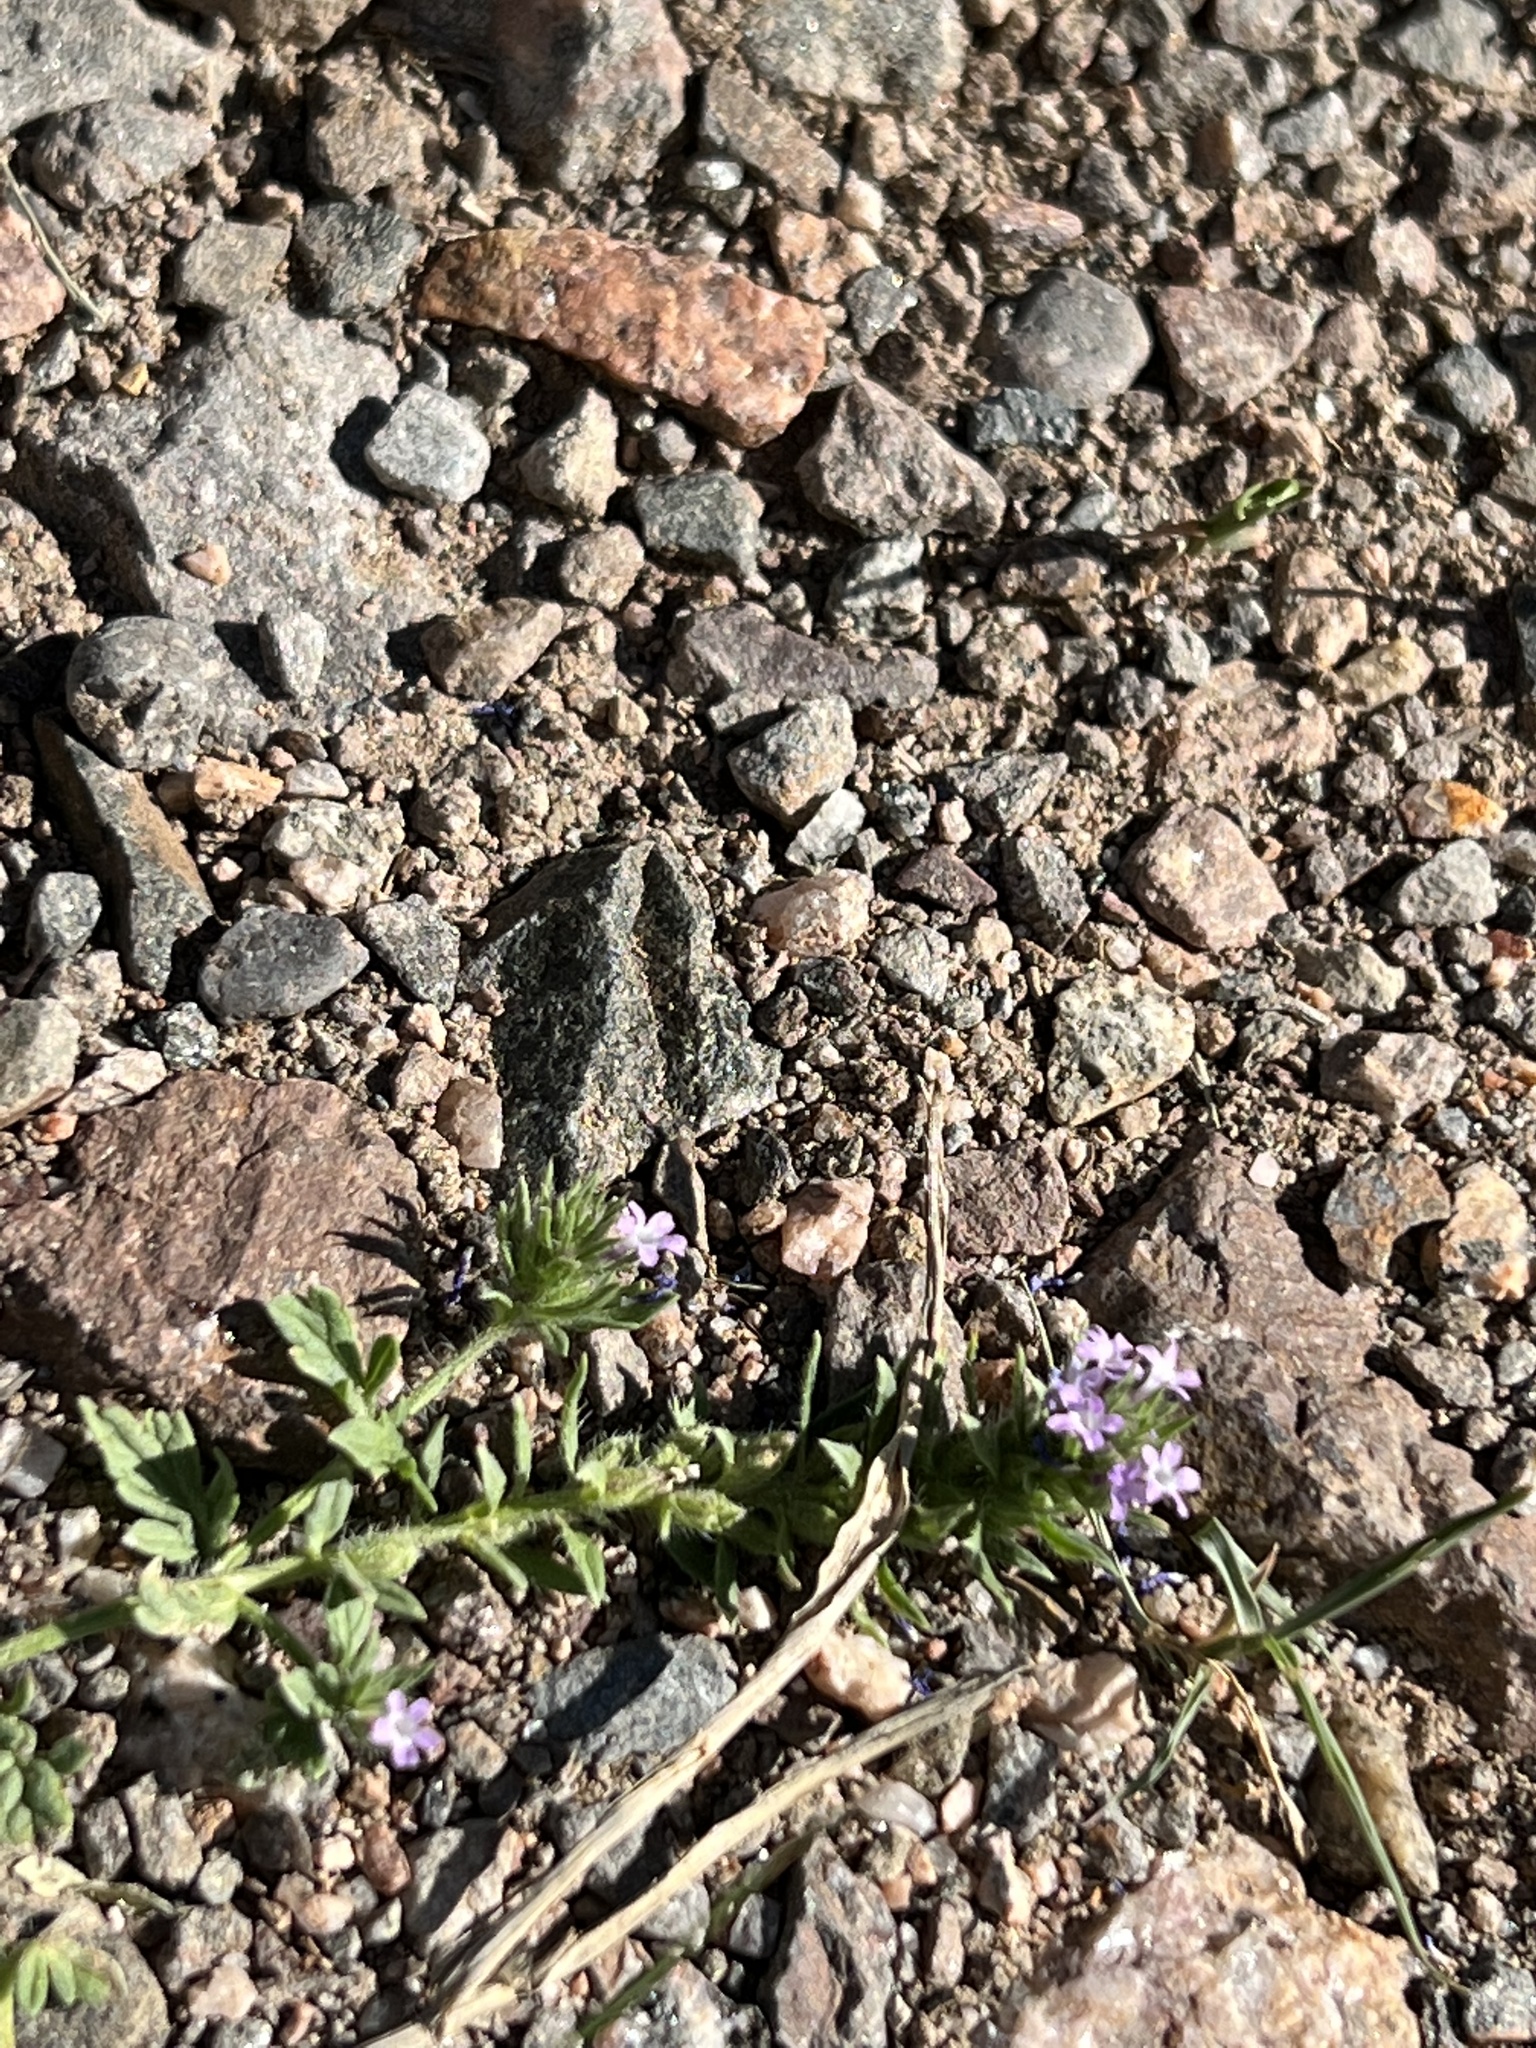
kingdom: Plantae
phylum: Tracheophyta
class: Magnoliopsida
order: Lamiales
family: Verbenaceae
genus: Verbena
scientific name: Verbena bracteata
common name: Bracted vervain
